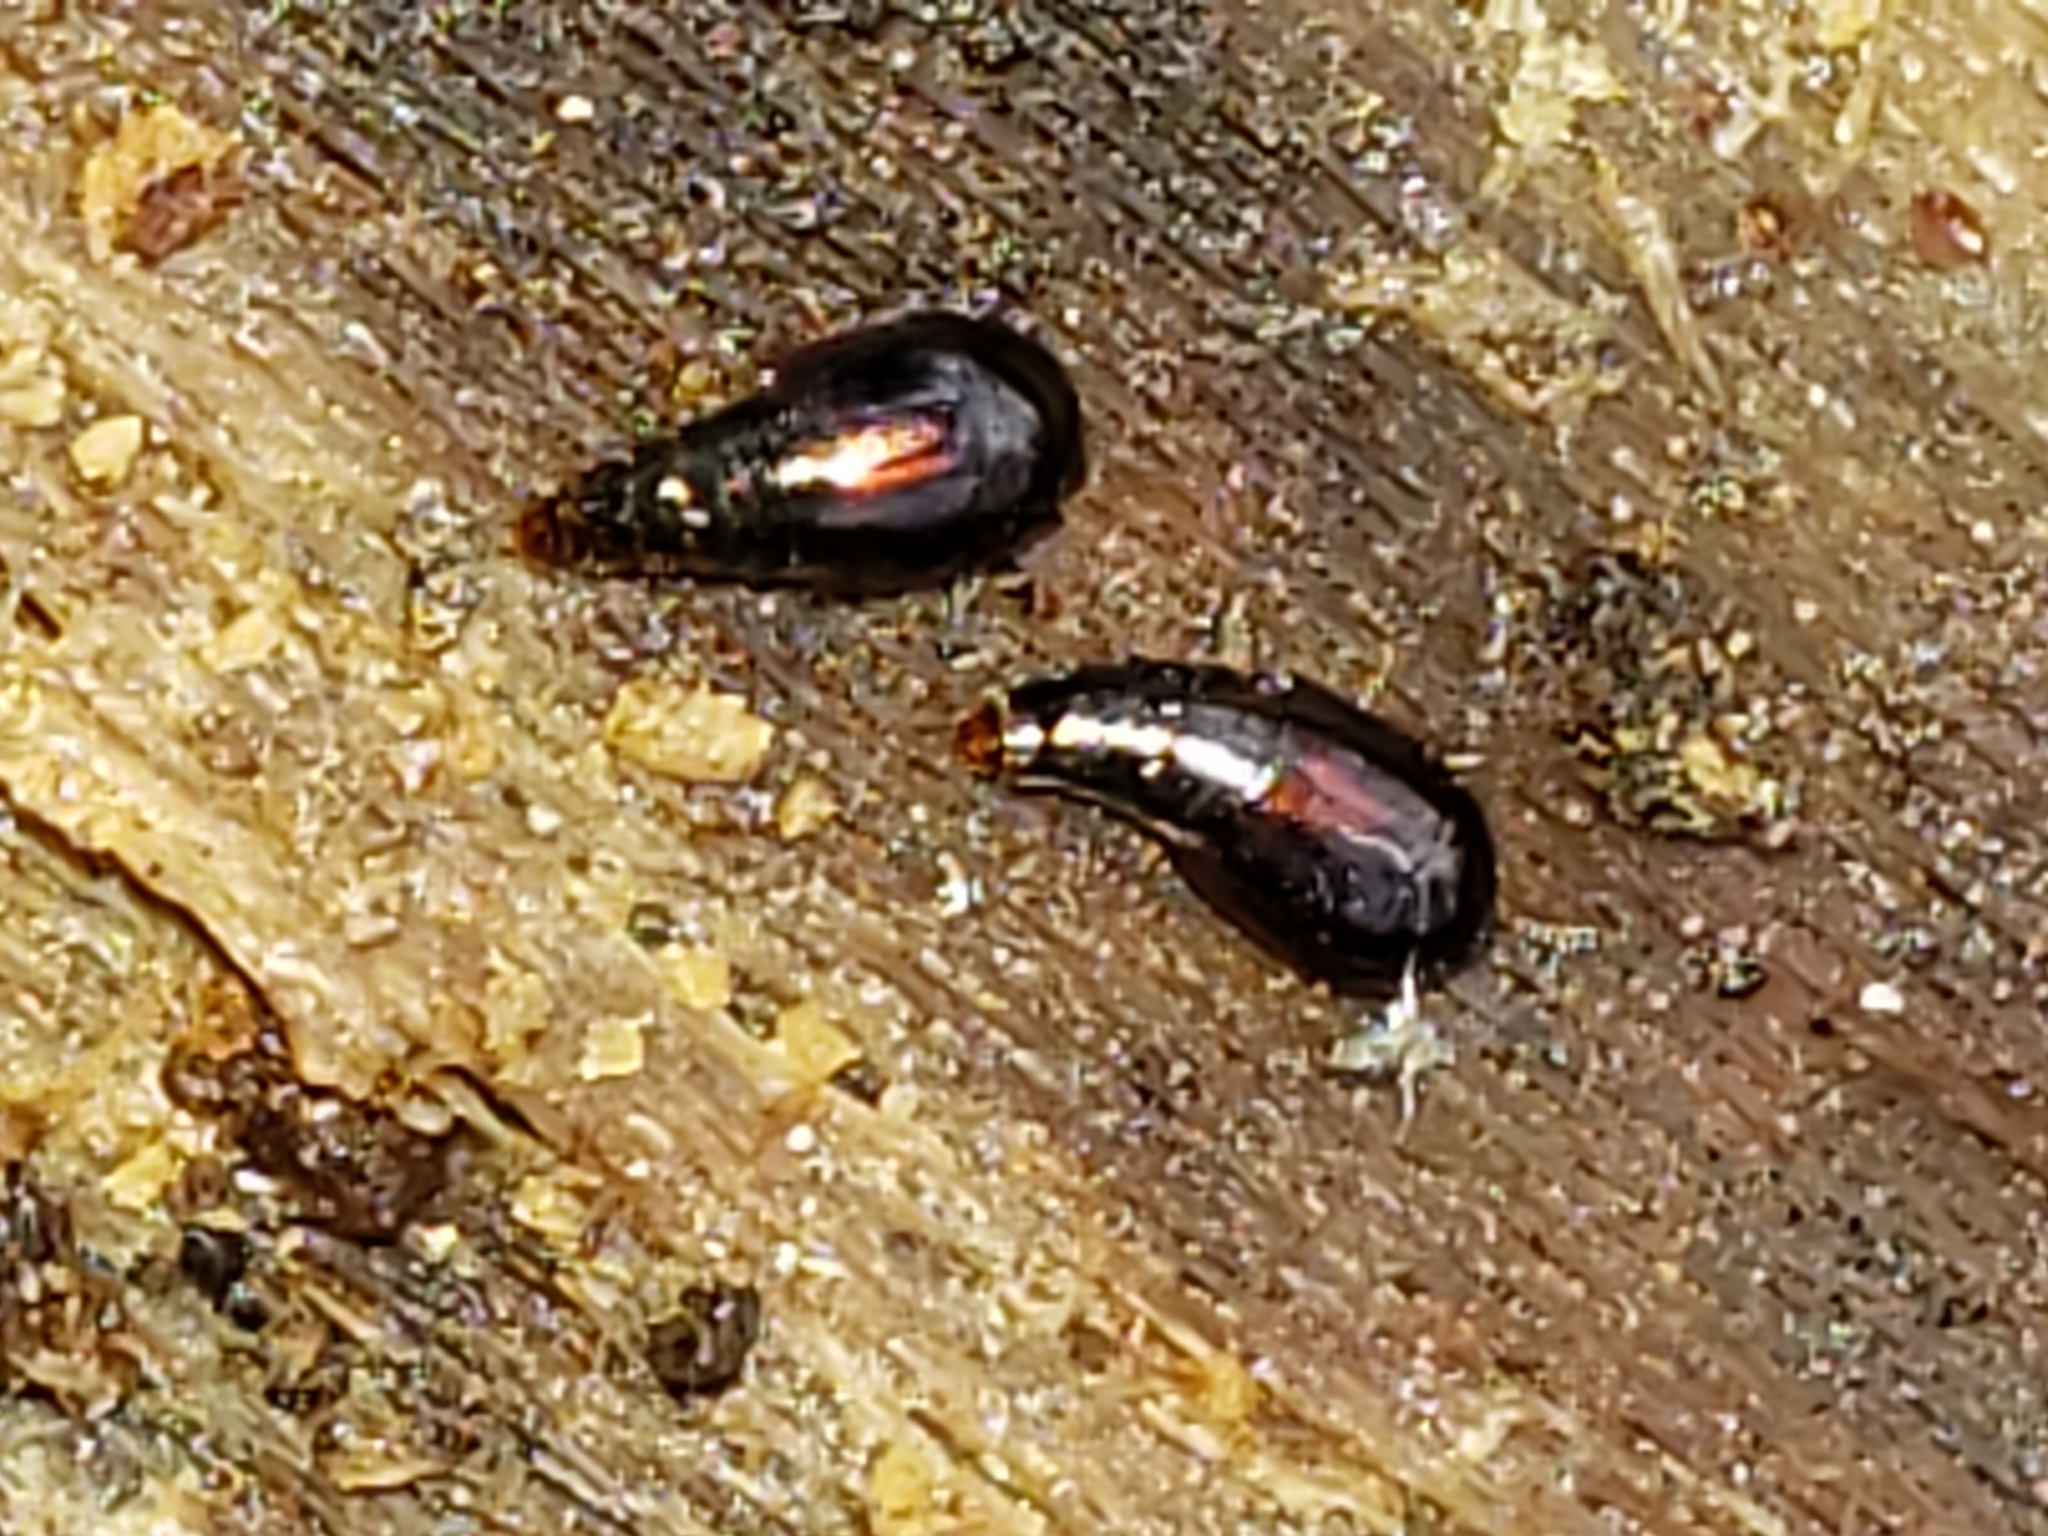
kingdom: Animalia
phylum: Arthropoda
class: Insecta
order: Coleoptera
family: Staphylinidae
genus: Coproporus
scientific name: Coproporus ventriculus
